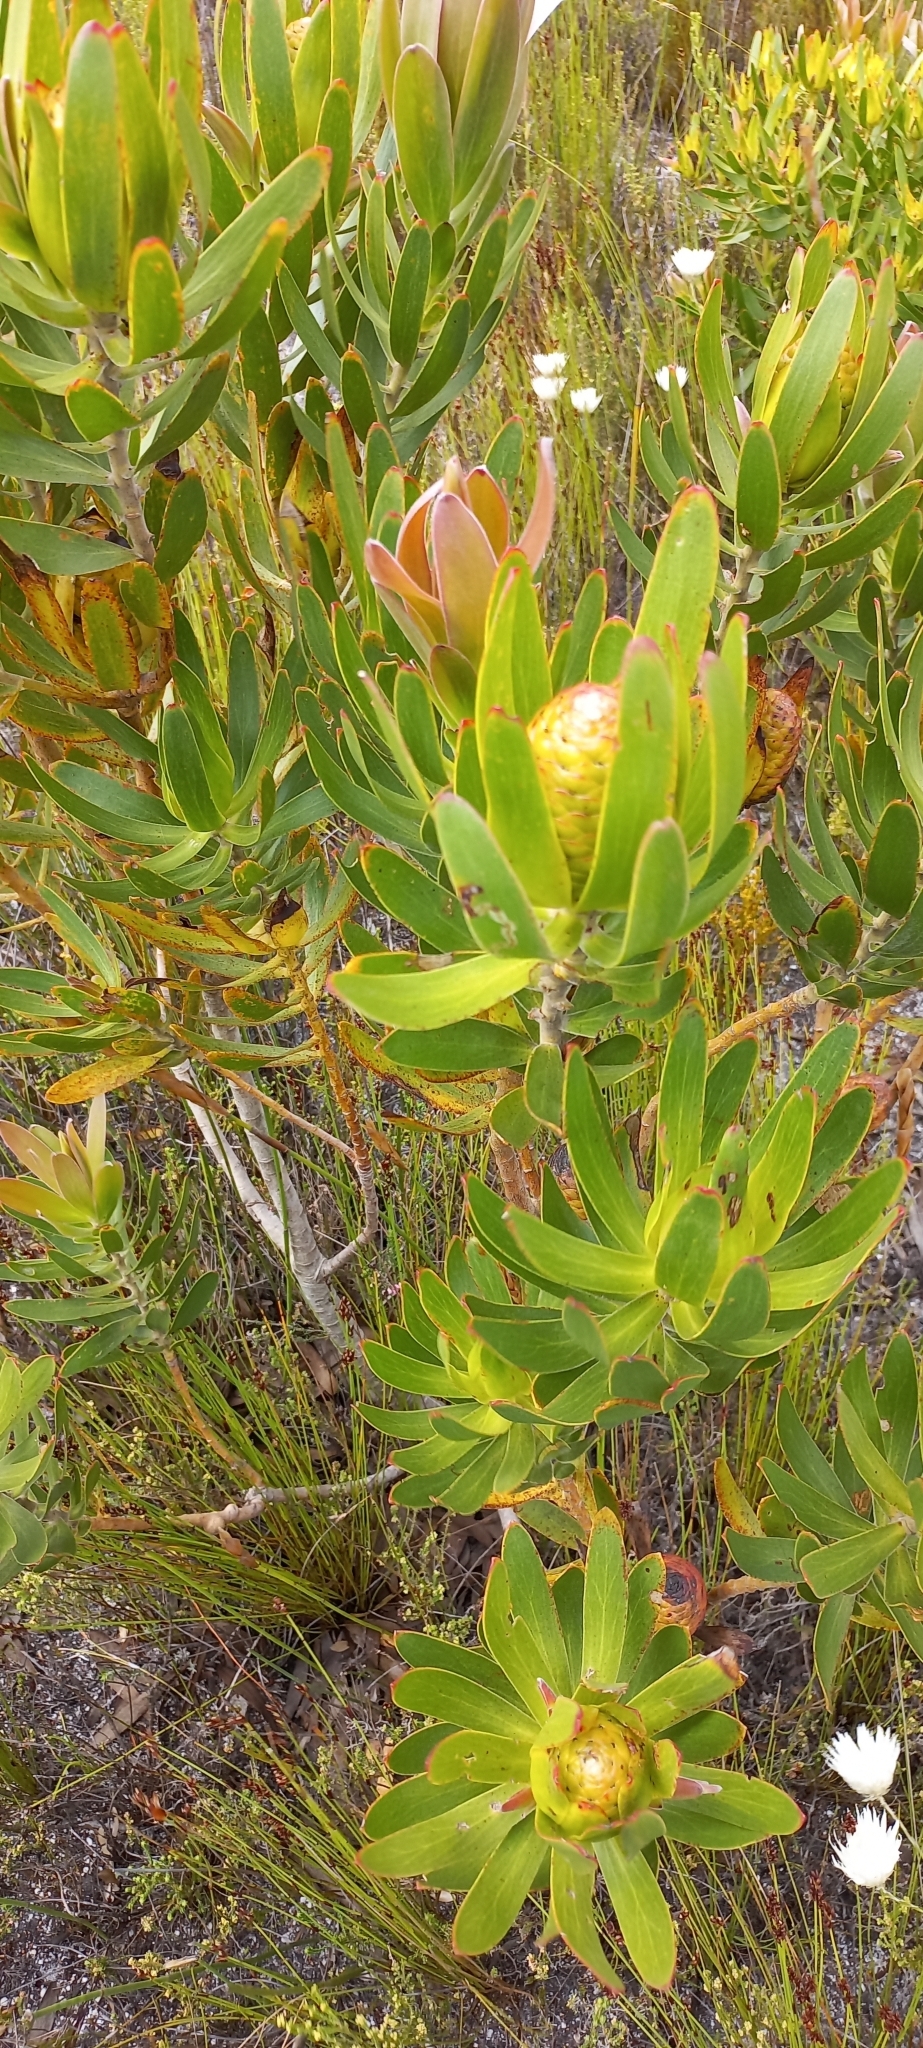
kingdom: Plantae
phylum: Tracheophyta
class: Magnoliopsida
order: Proteales
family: Proteaceae
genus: Leucadendron
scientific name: Leucadendron laureolum
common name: Golden sunshinebush
